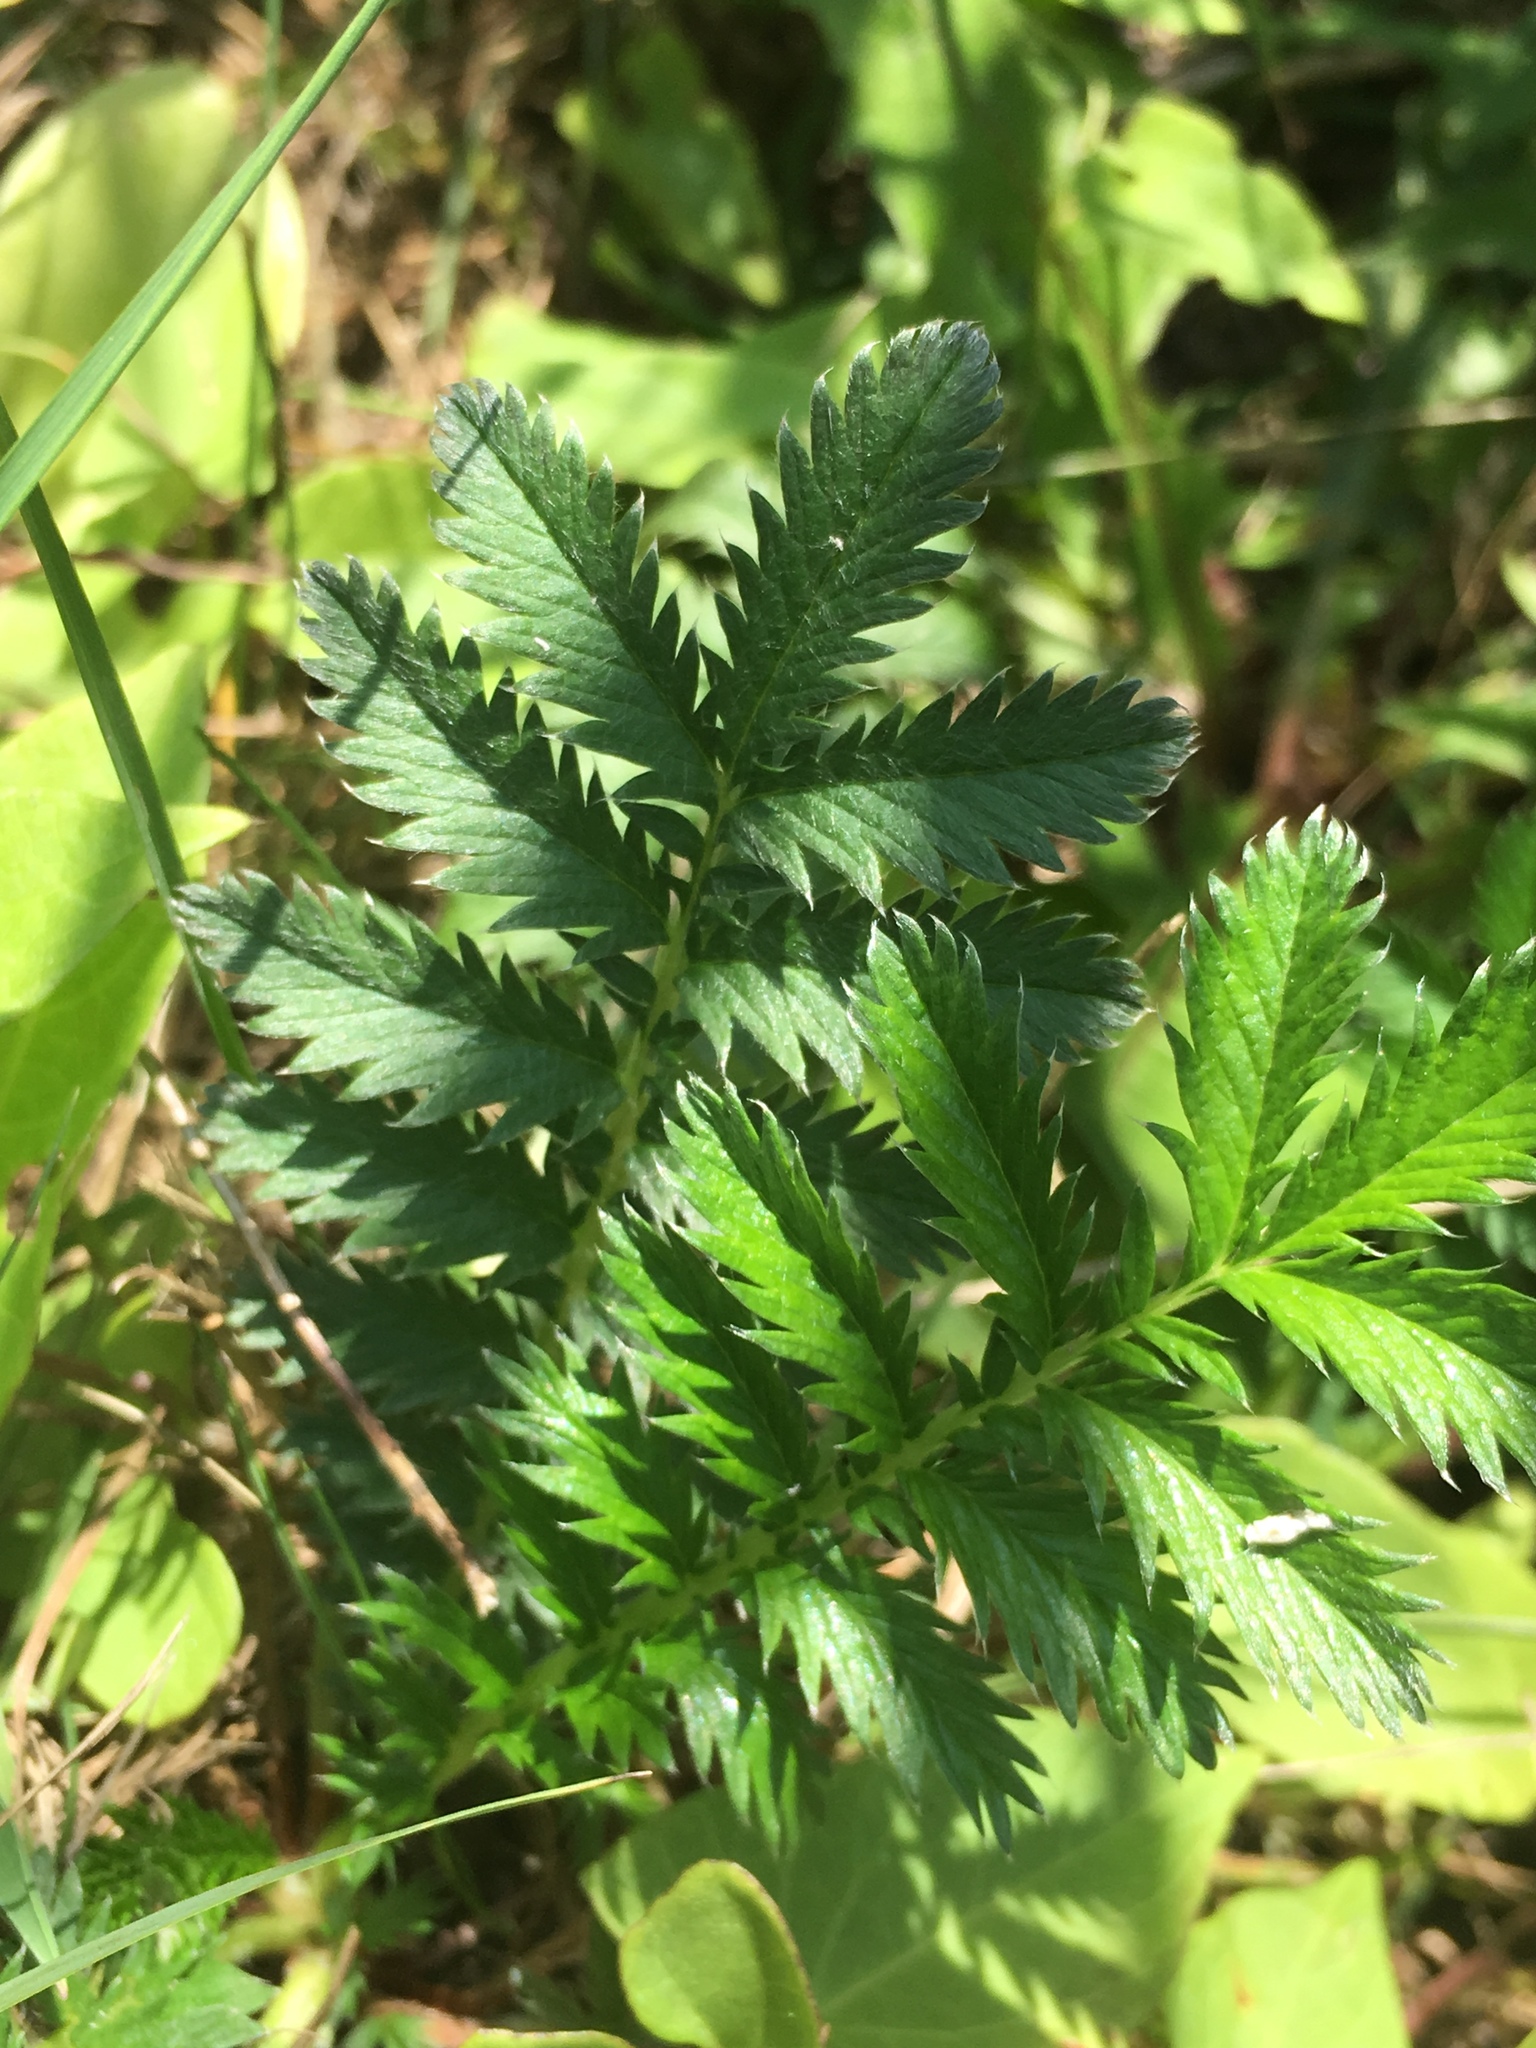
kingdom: Plantae
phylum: Tracheophyta
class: Magnoliopsida
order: Rosales
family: Rosaceae
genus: Argentina
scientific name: Argentina anserina
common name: Common silverweed
